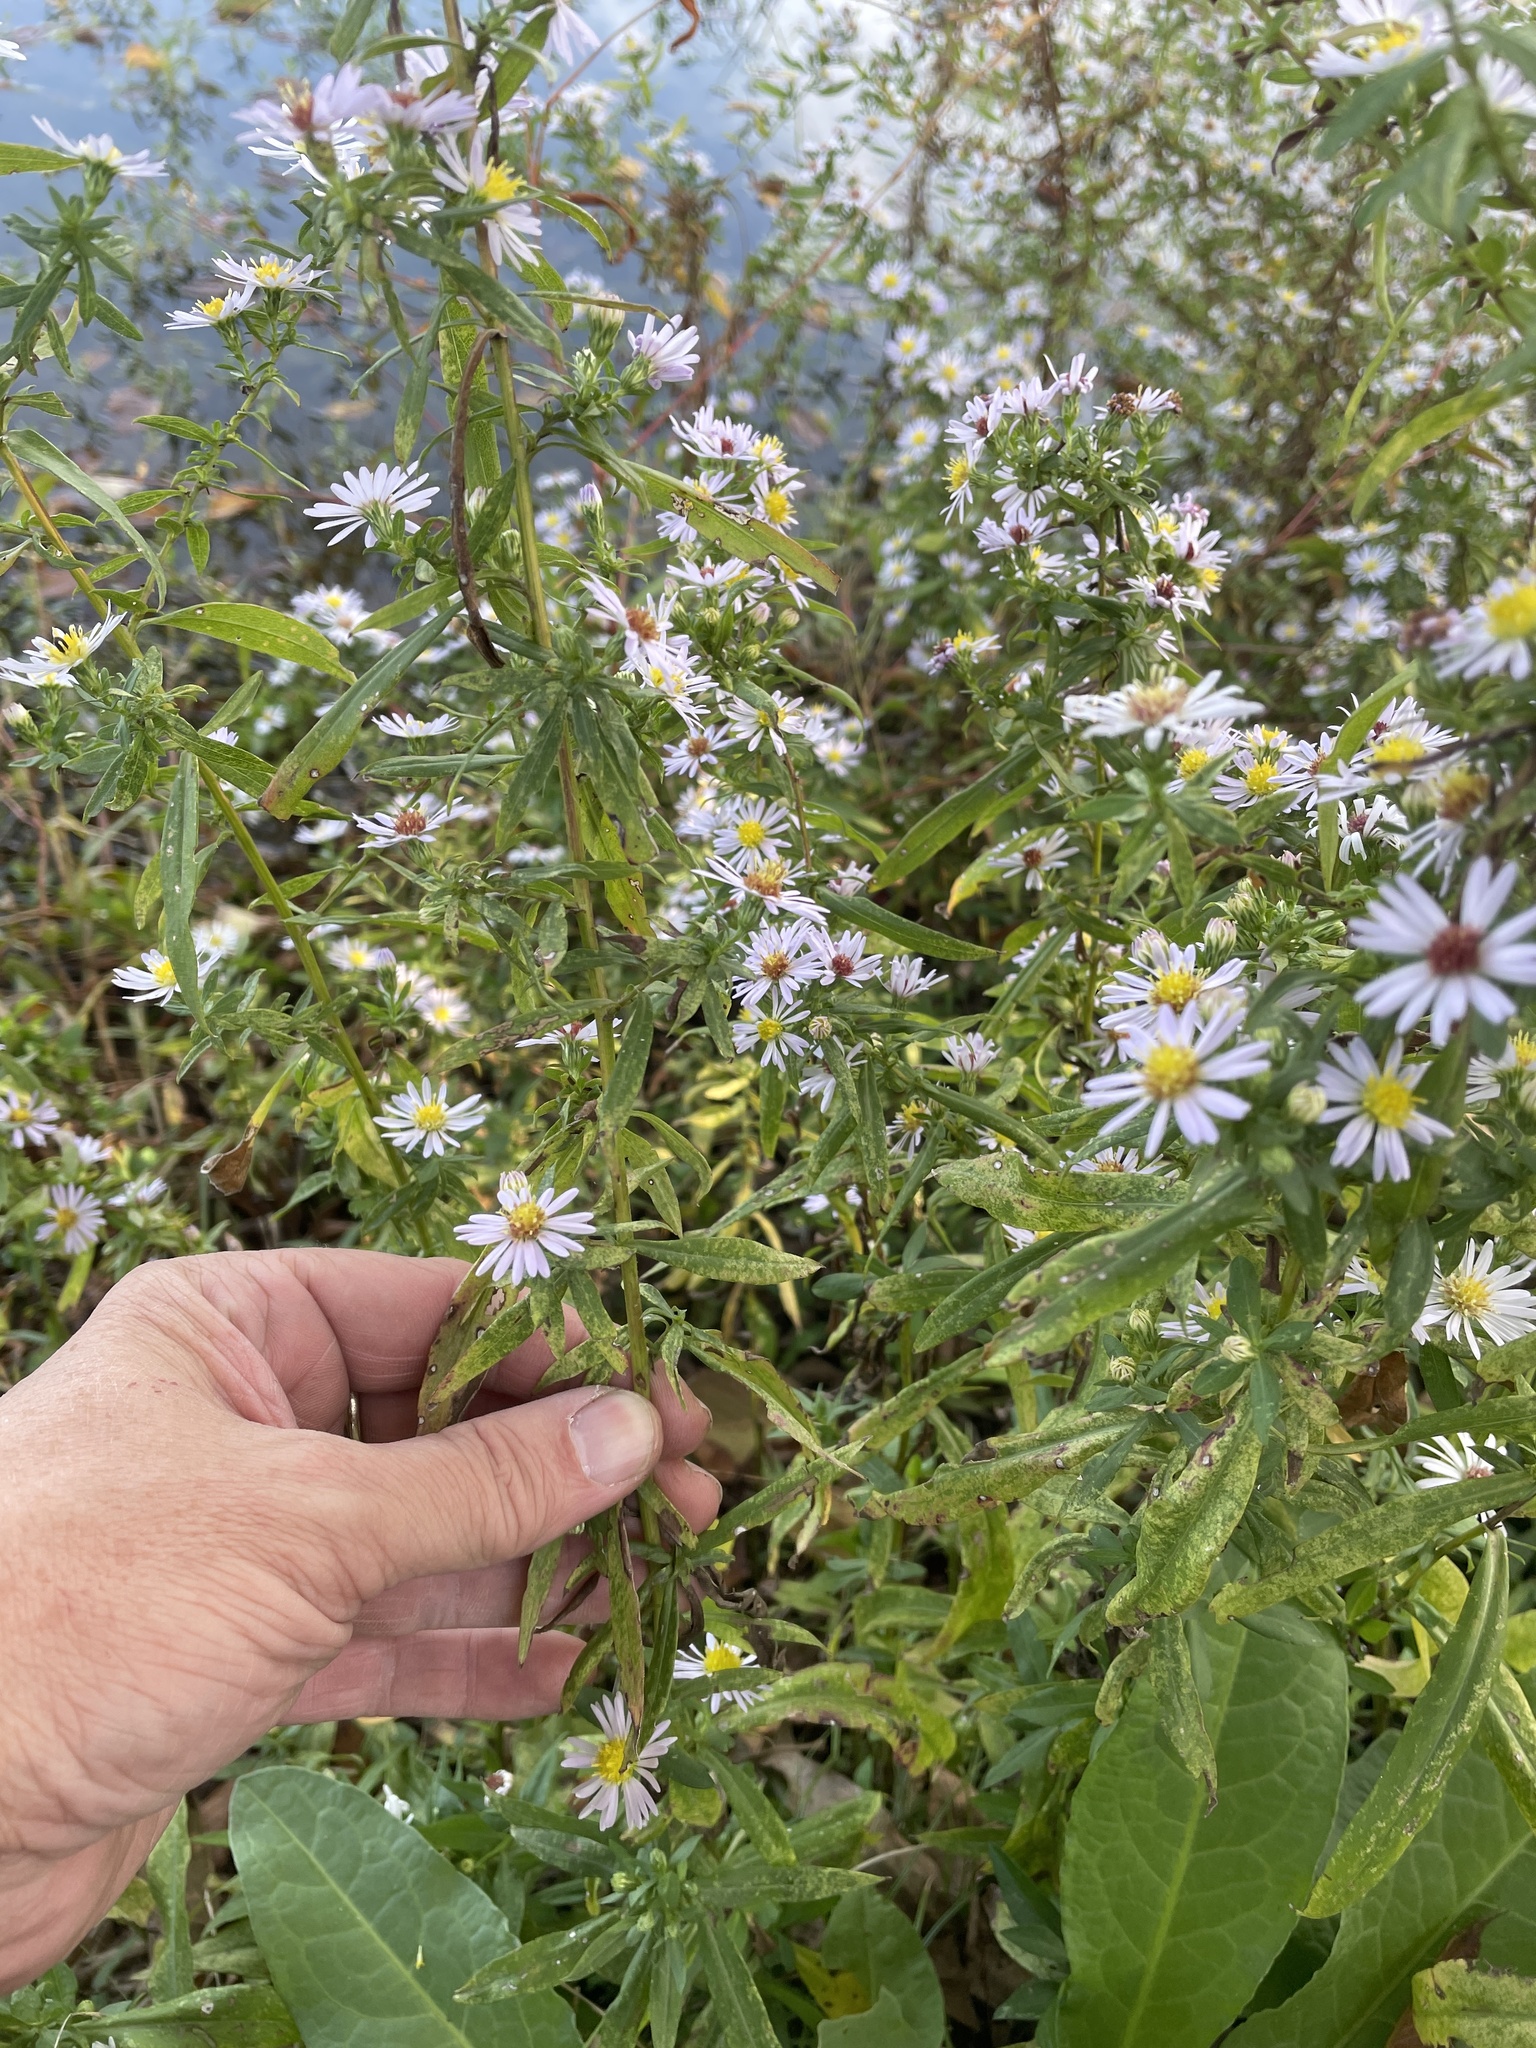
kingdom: Plantae
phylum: Tracheophyta
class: Magnoliopsida
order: Asterales
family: Asteraceae
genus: Symphyotrichum
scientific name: Symphyotrichum lanceolatum
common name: Panicled aster
